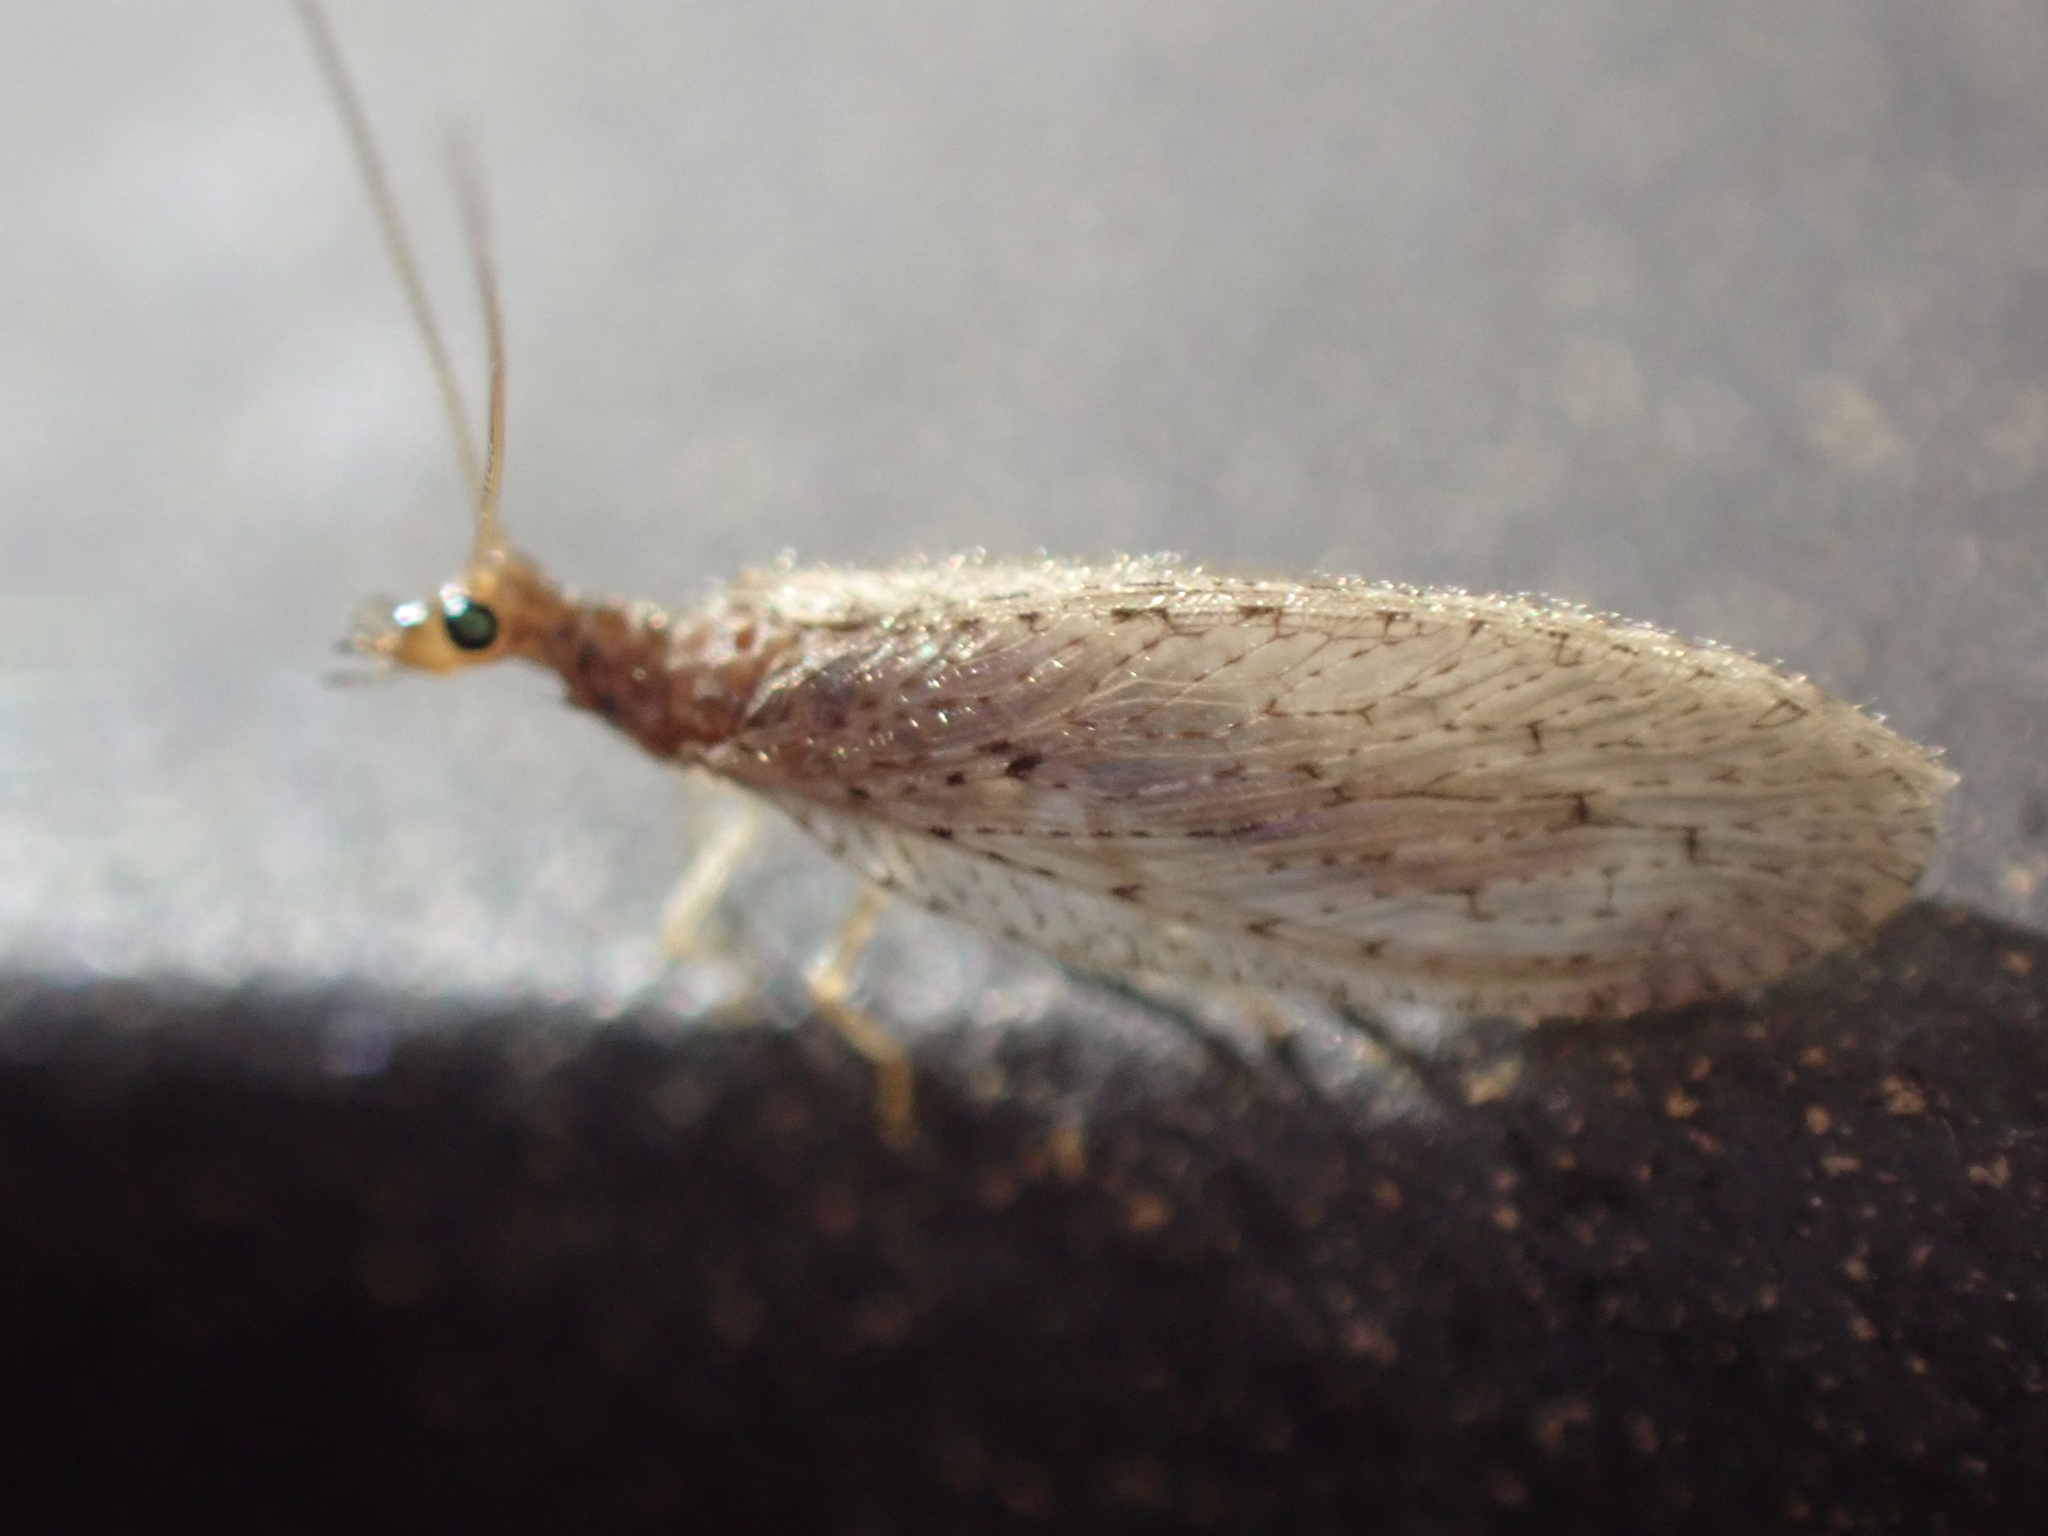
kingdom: Animalia
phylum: Arthropoda
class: Insecta
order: Neuroptera
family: Hemerobiidae
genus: Micromus
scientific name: Micromus subanticus
